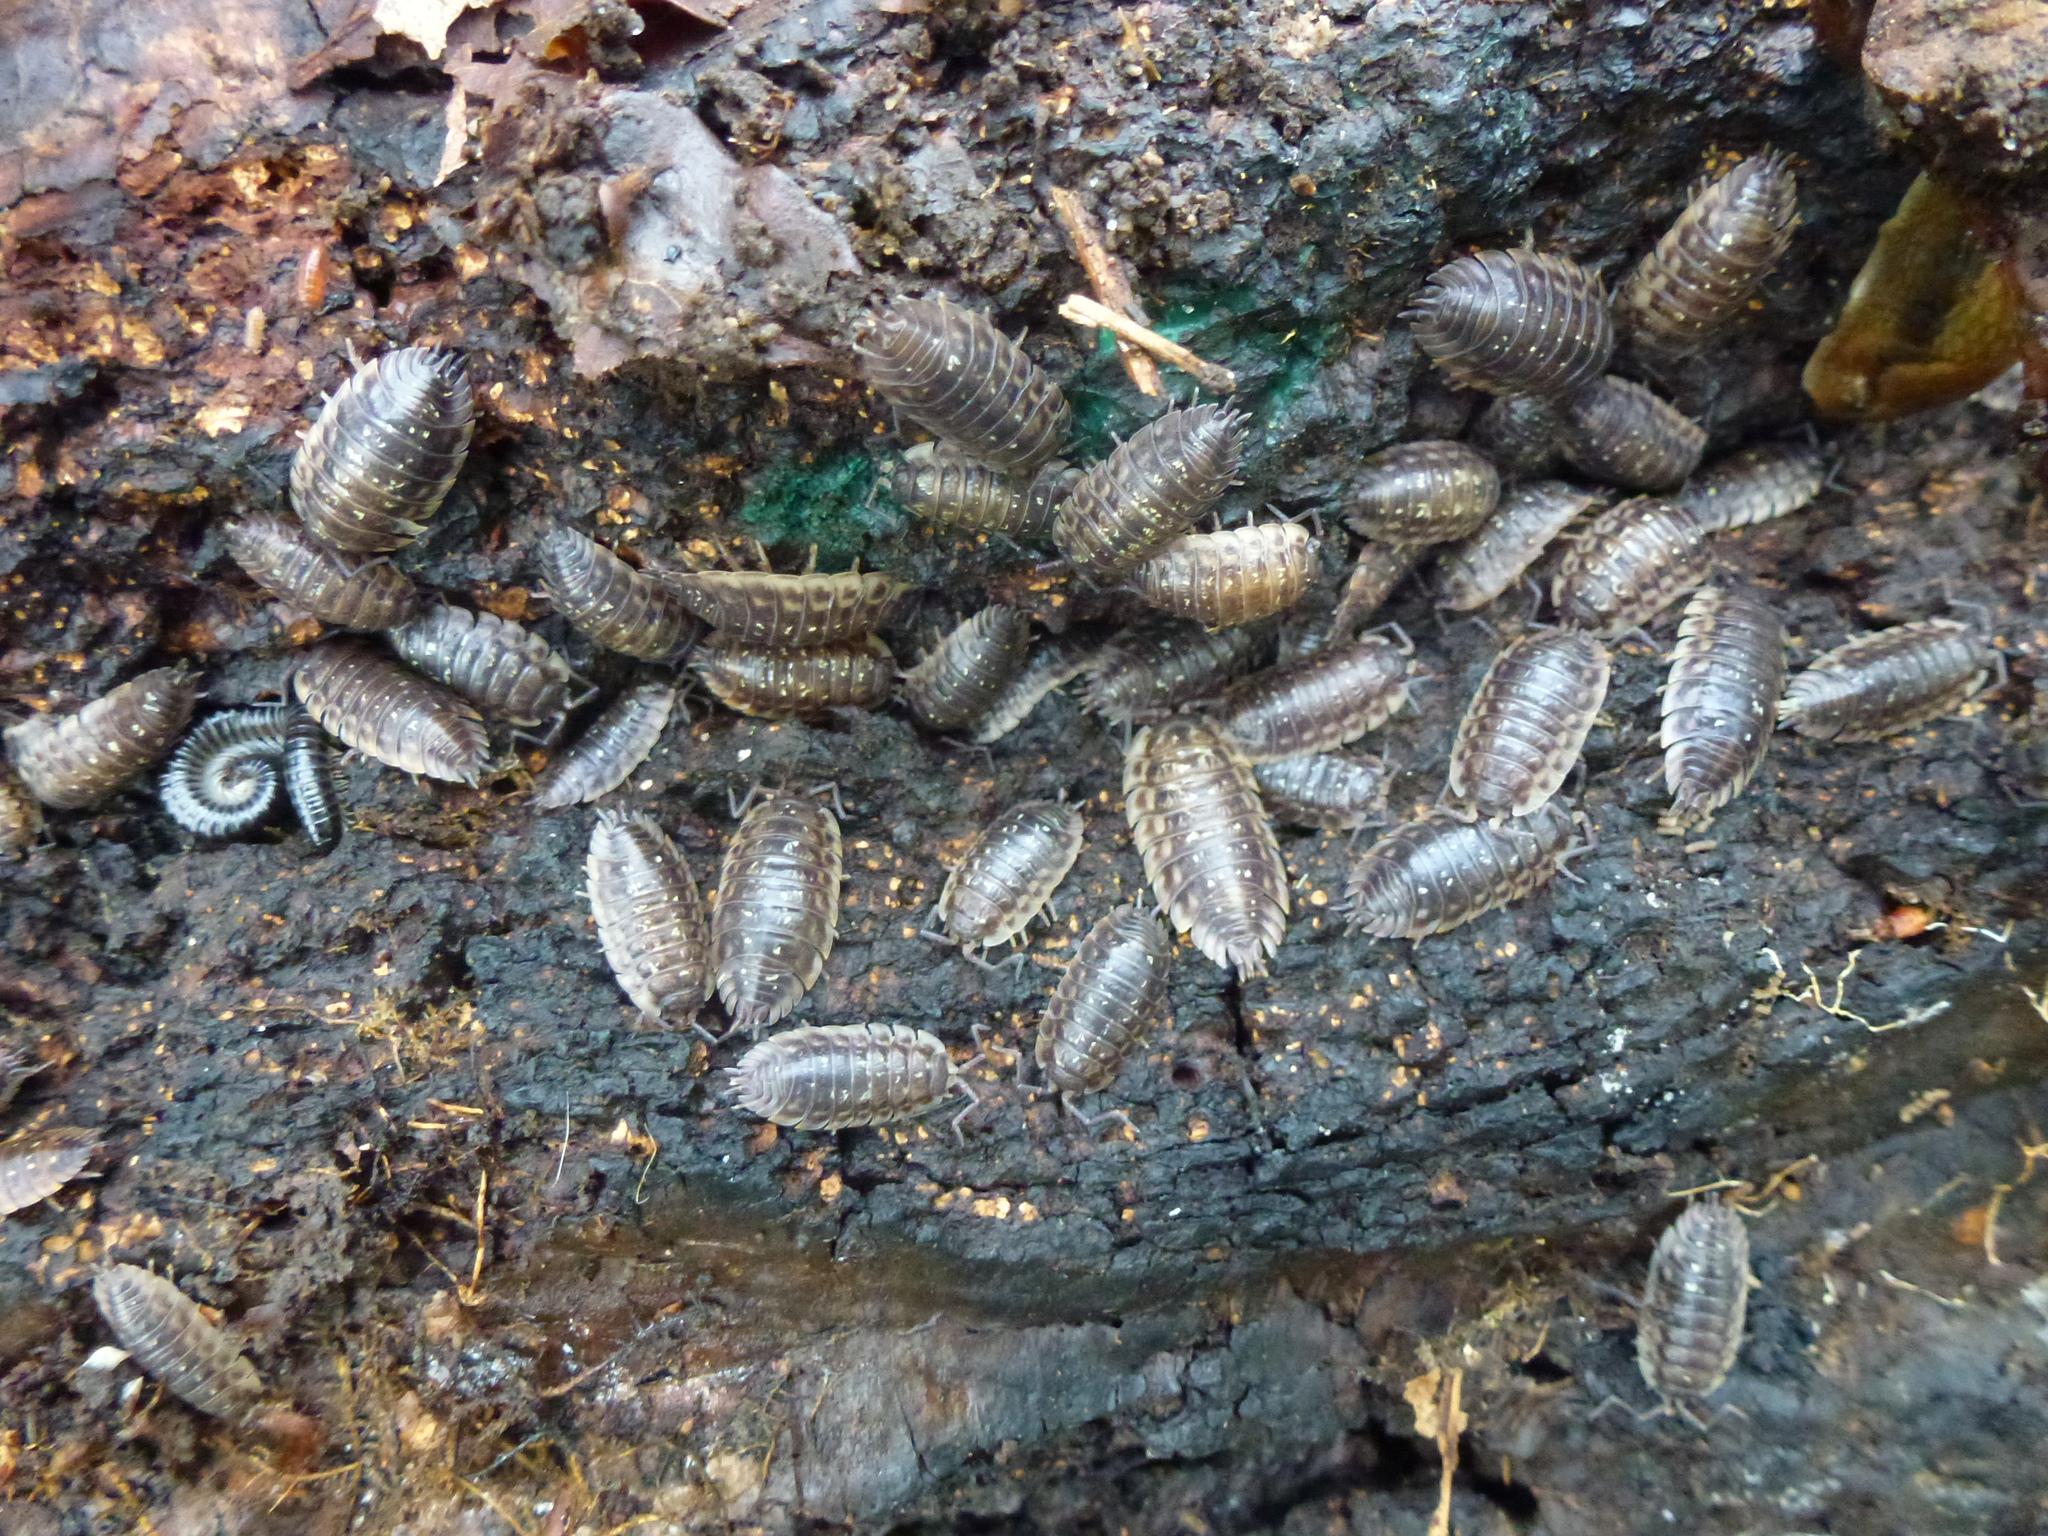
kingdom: Animalia
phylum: Arthropoda
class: Malacostraca
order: Isopoda
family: Oniscidae
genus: Oniscus
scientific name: Oniscus asellus
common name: Common shiny woodlouse
